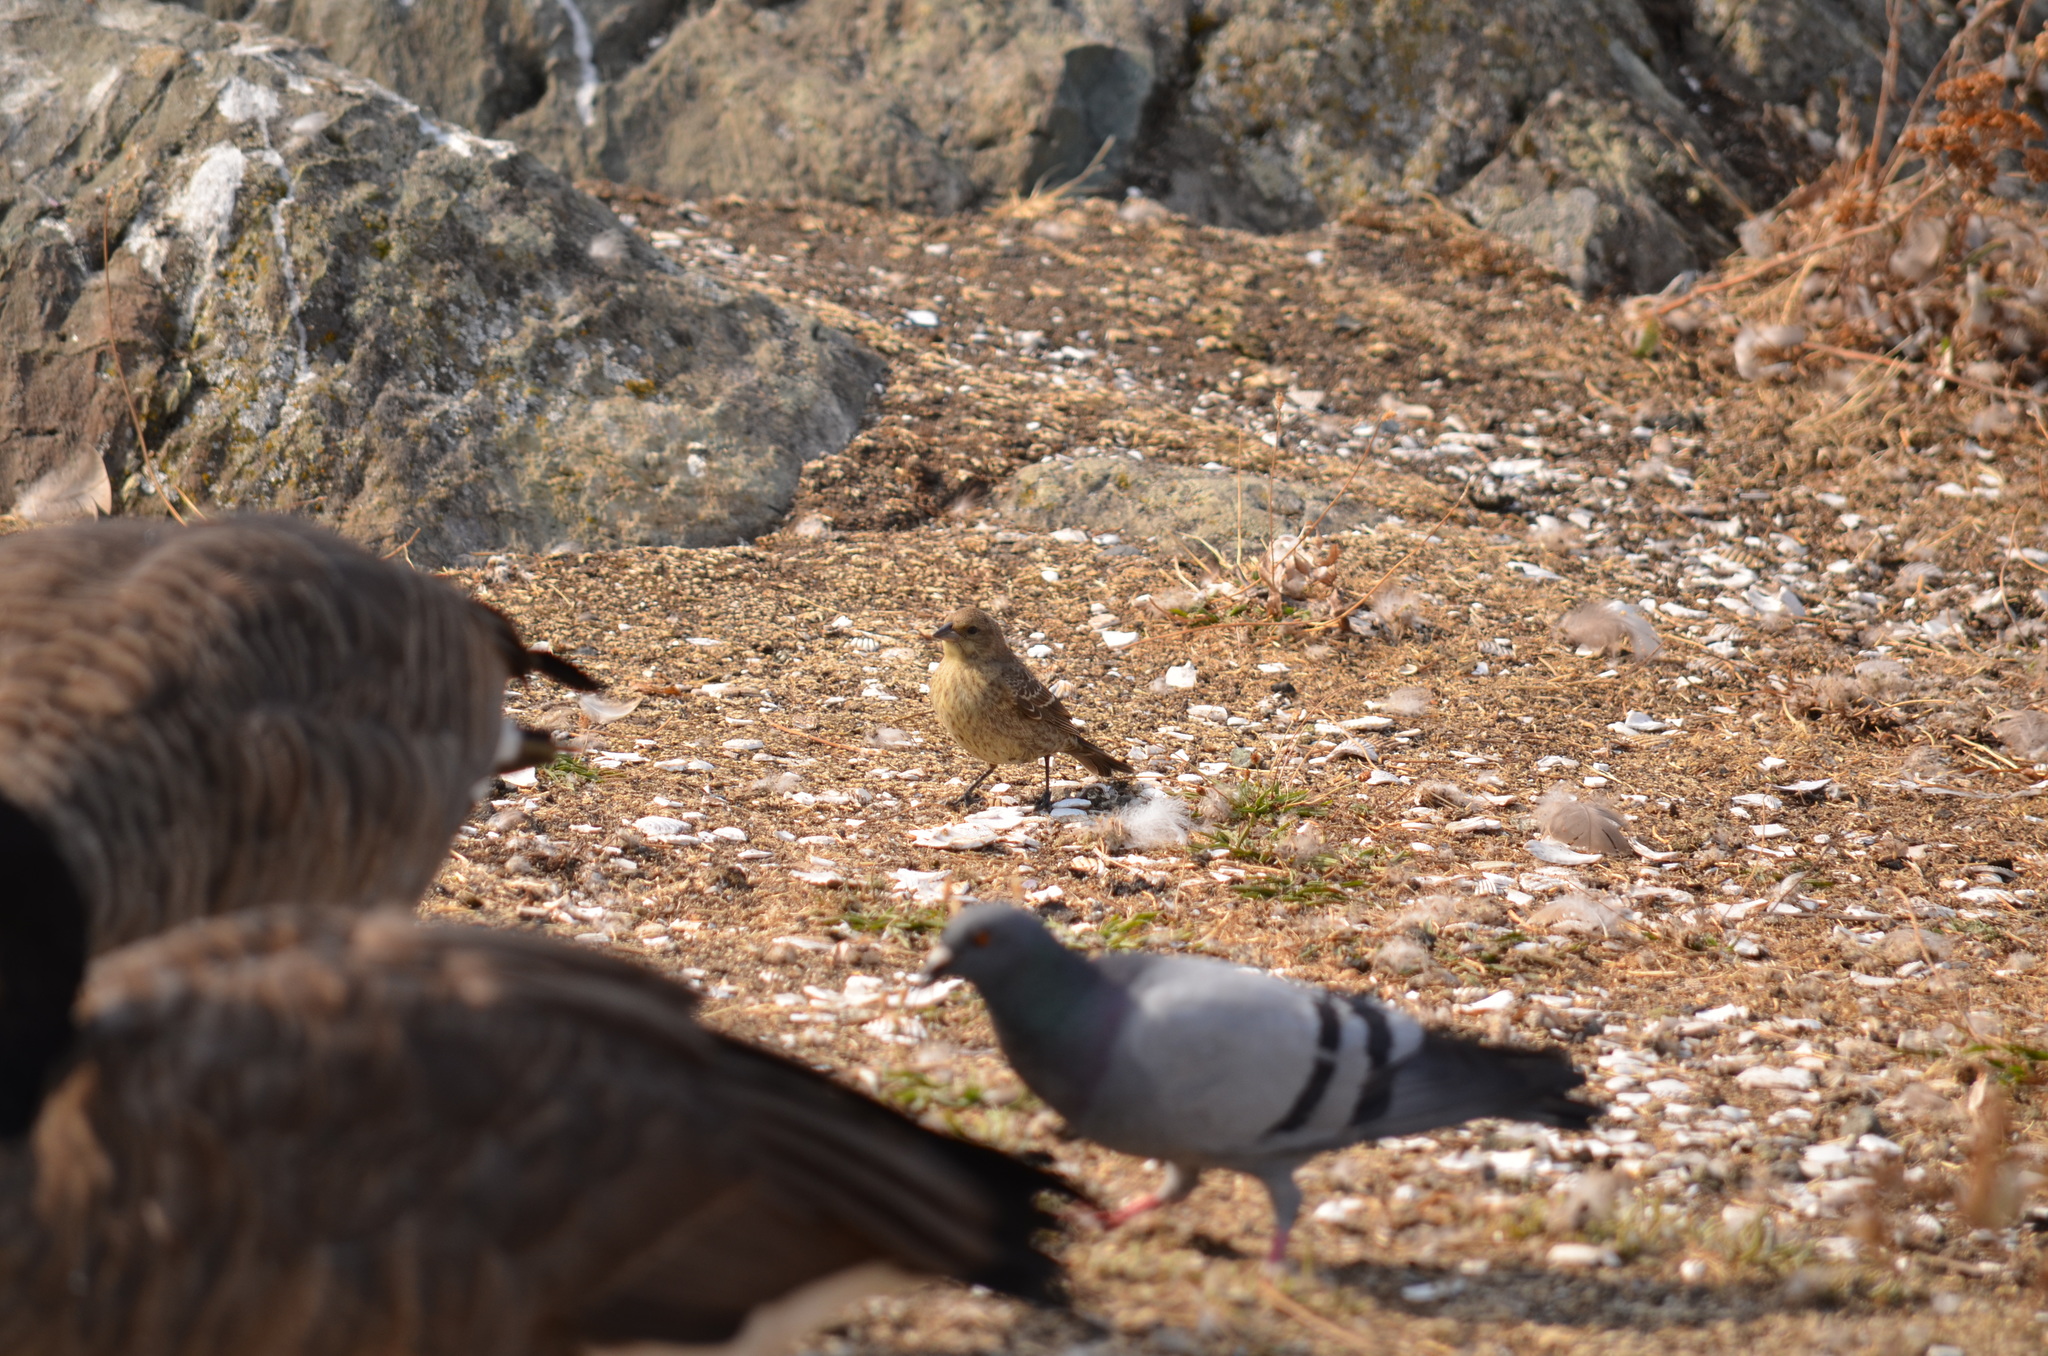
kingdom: Animalia
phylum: Chordata
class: Aves
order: Passeriformes
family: Icteridae
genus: Molothrus
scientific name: Molothrus ater
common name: Brown-headed cowbird
